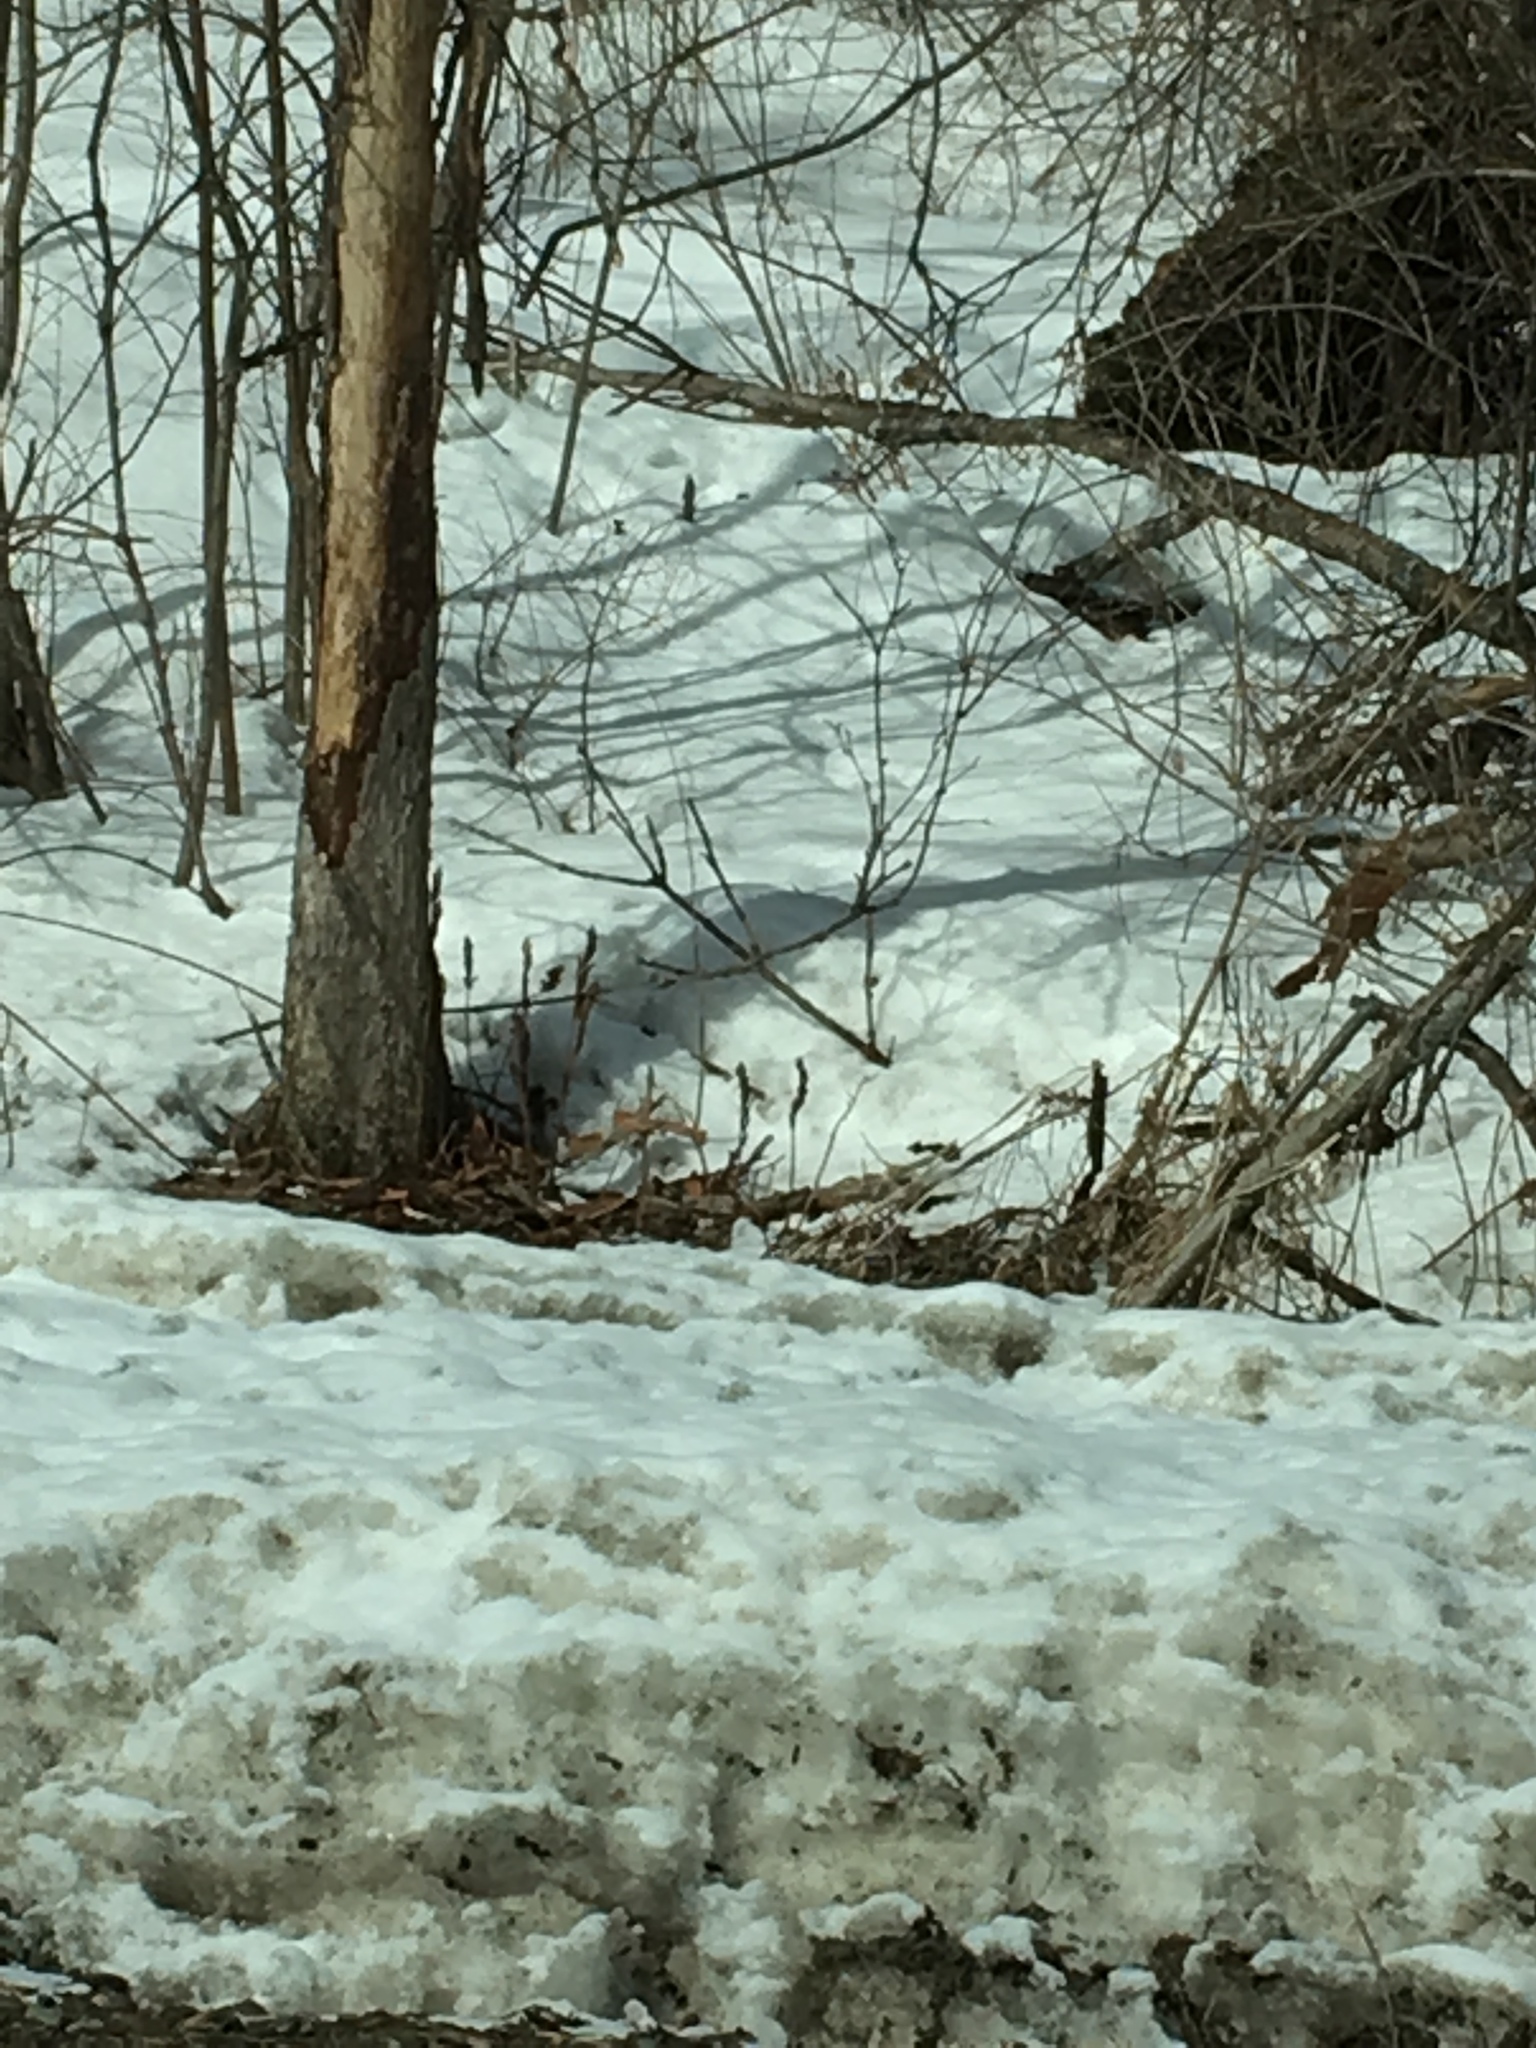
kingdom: Plantae
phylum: Tracheophyta
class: Polypodiopsida
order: Polypodiales
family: Onocleaceae
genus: Onoclea
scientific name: Onoclea sensibilis
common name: Sensitive fern
